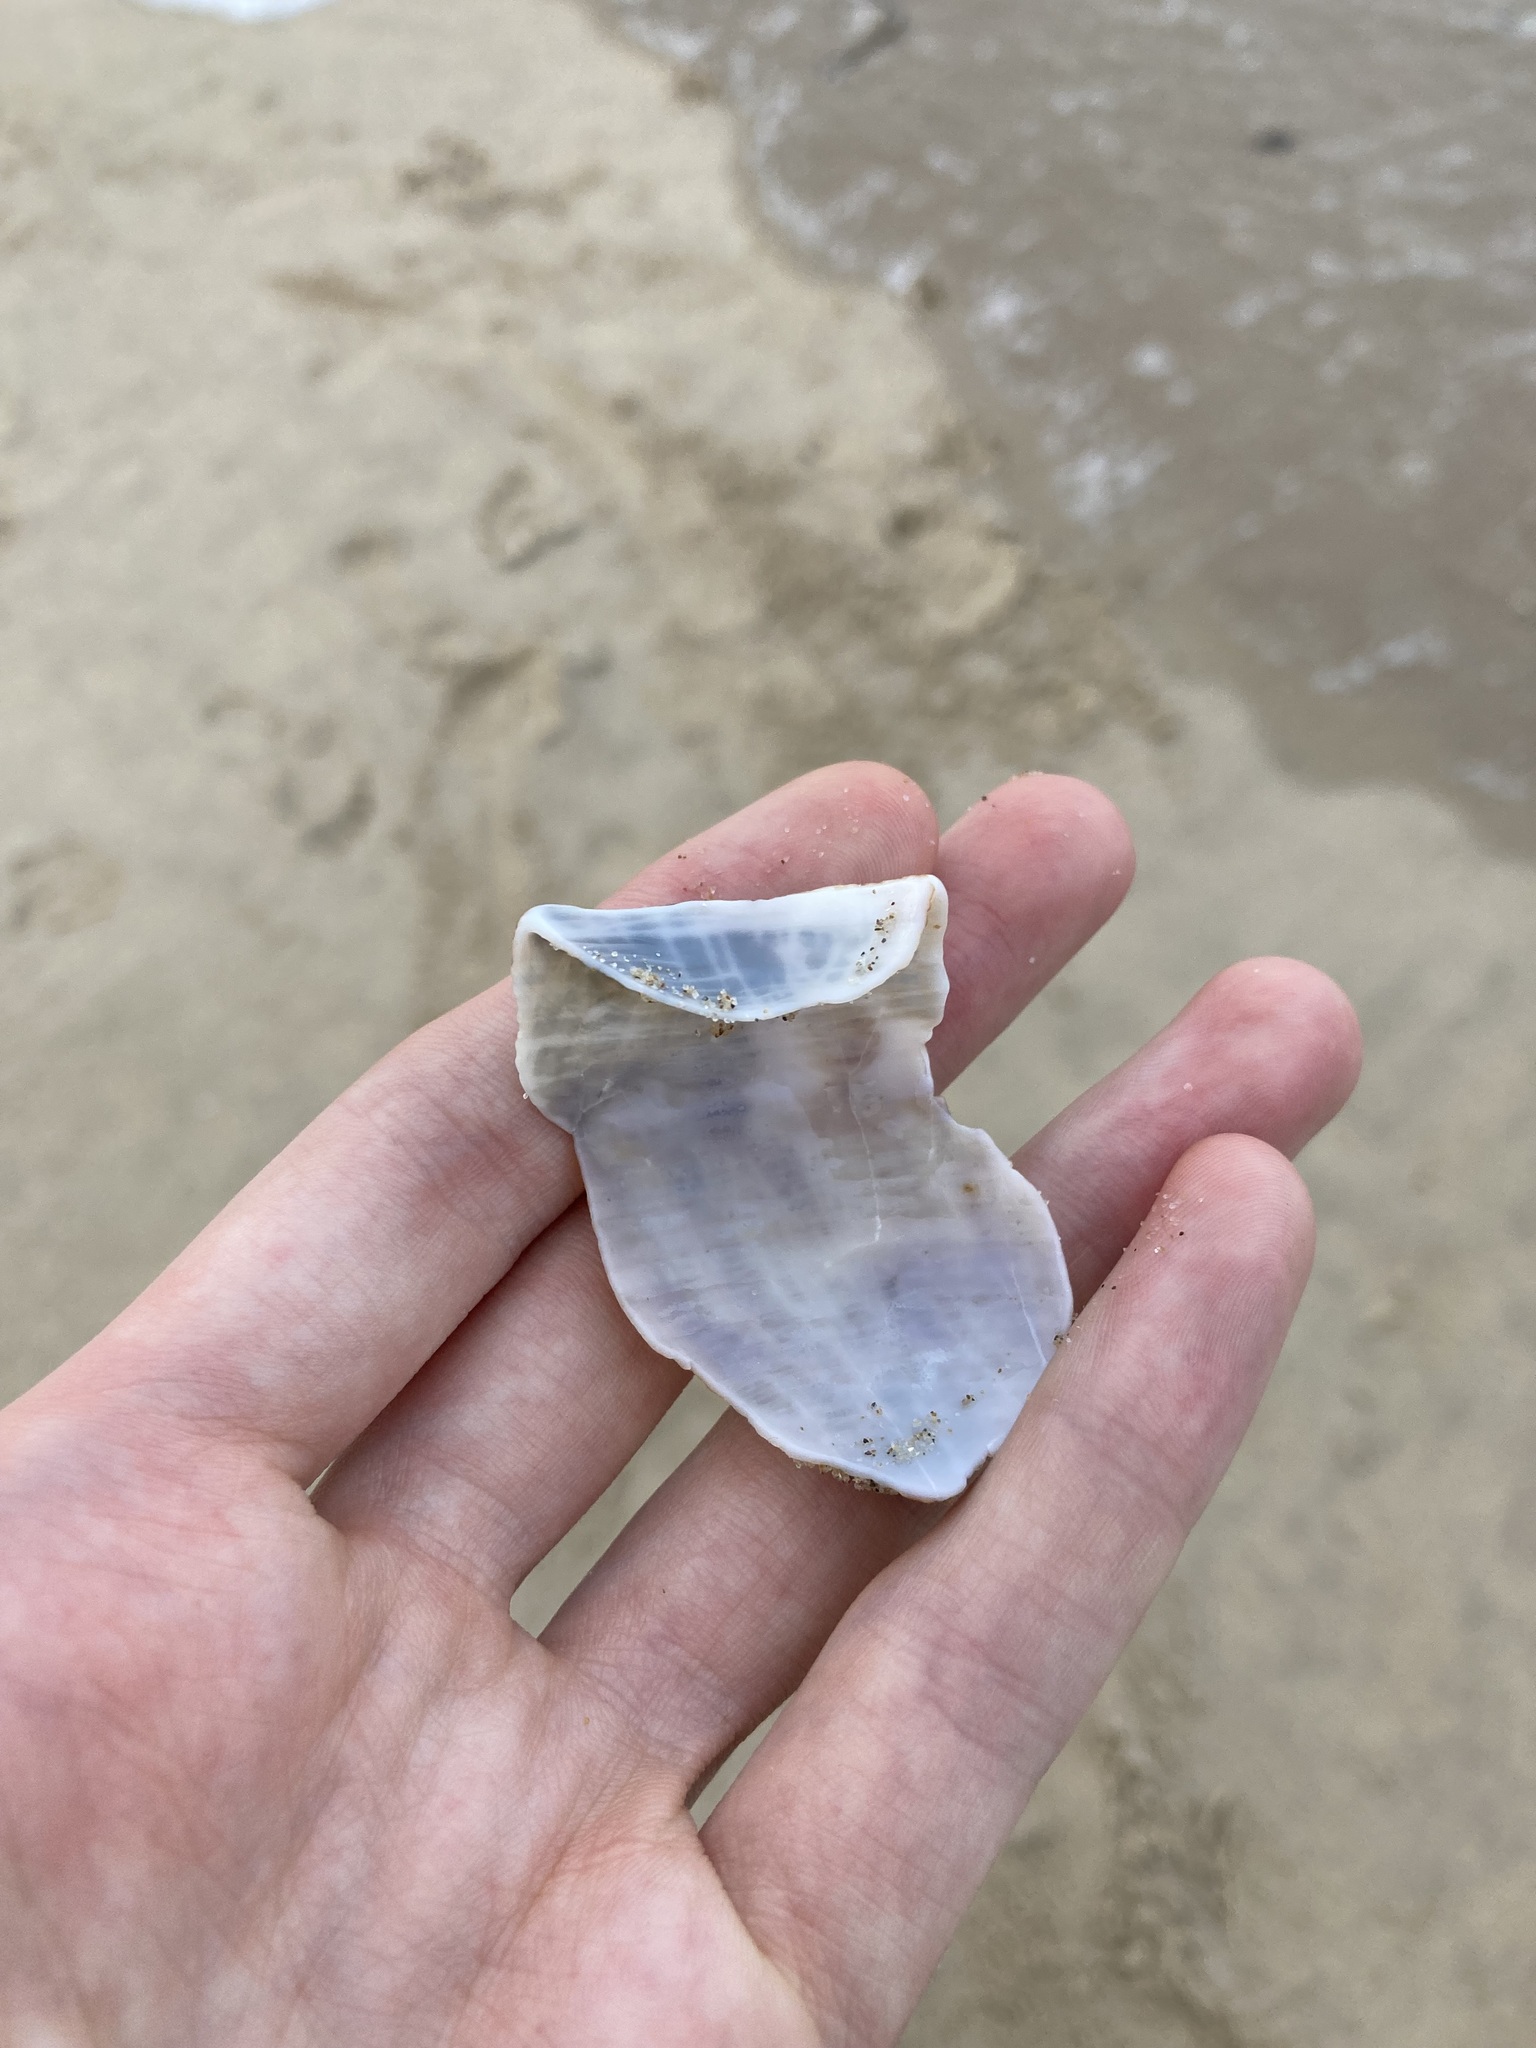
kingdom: Animalia
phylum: Mollusca
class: Gastropoda
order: Neogastropoda
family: Austrosiphonidae
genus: Penion
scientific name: Penion maximus
